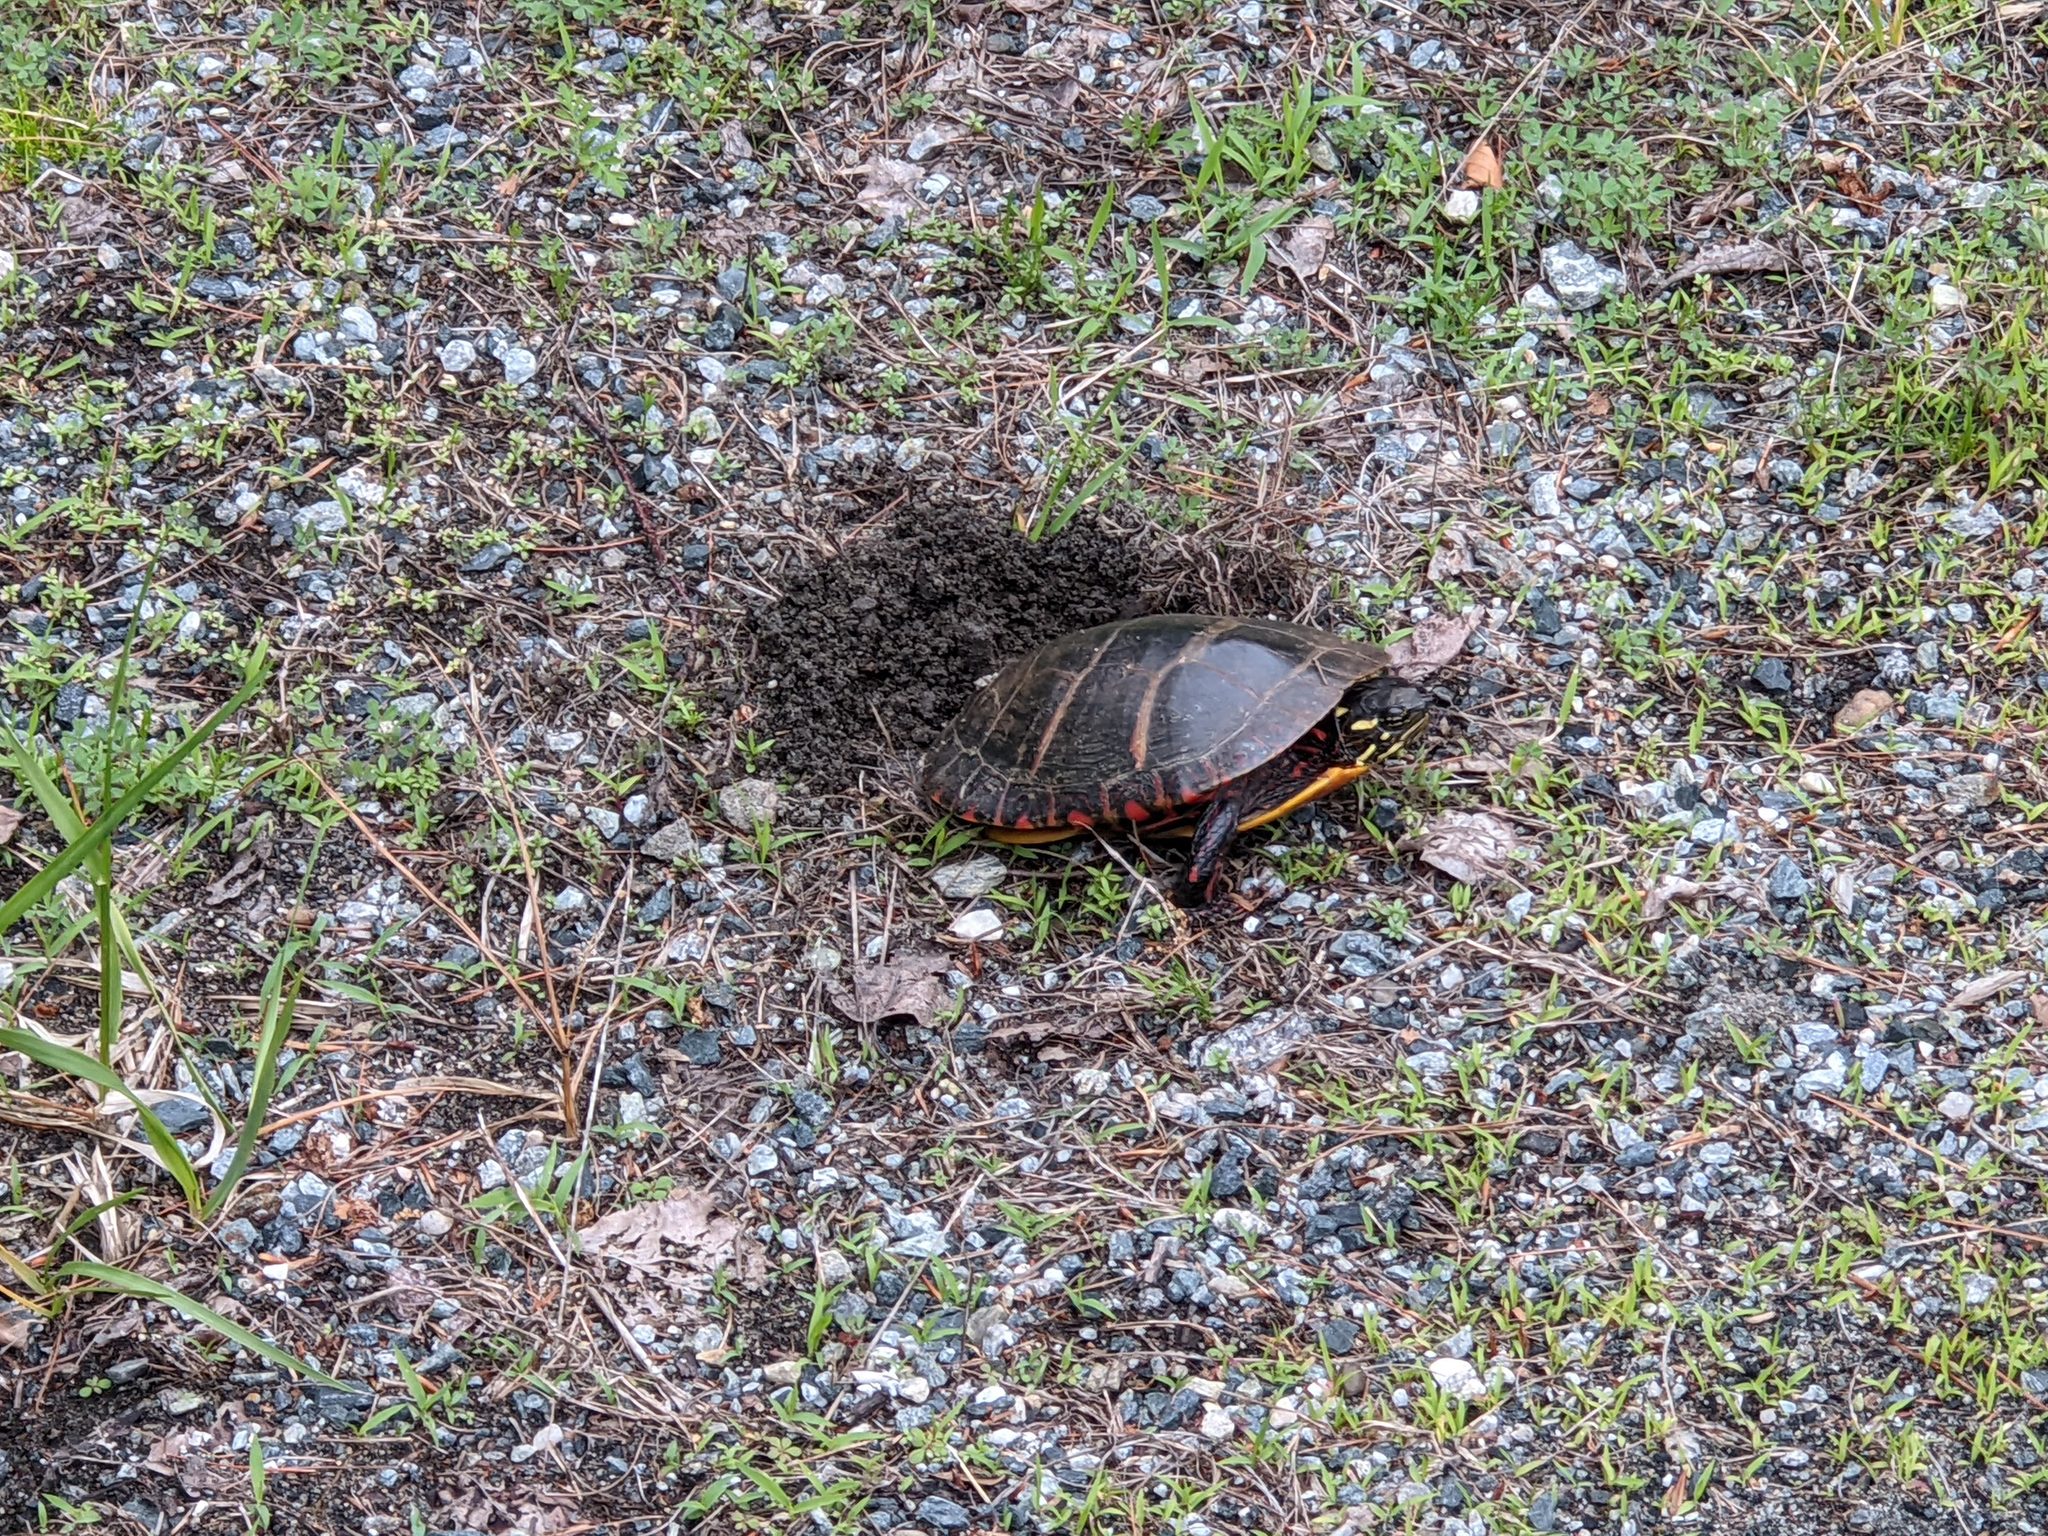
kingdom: Animalia
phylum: Chordata
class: Testudines
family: Emydidae
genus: Chrysemys
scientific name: Chrysemys picta
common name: Painted turtle
